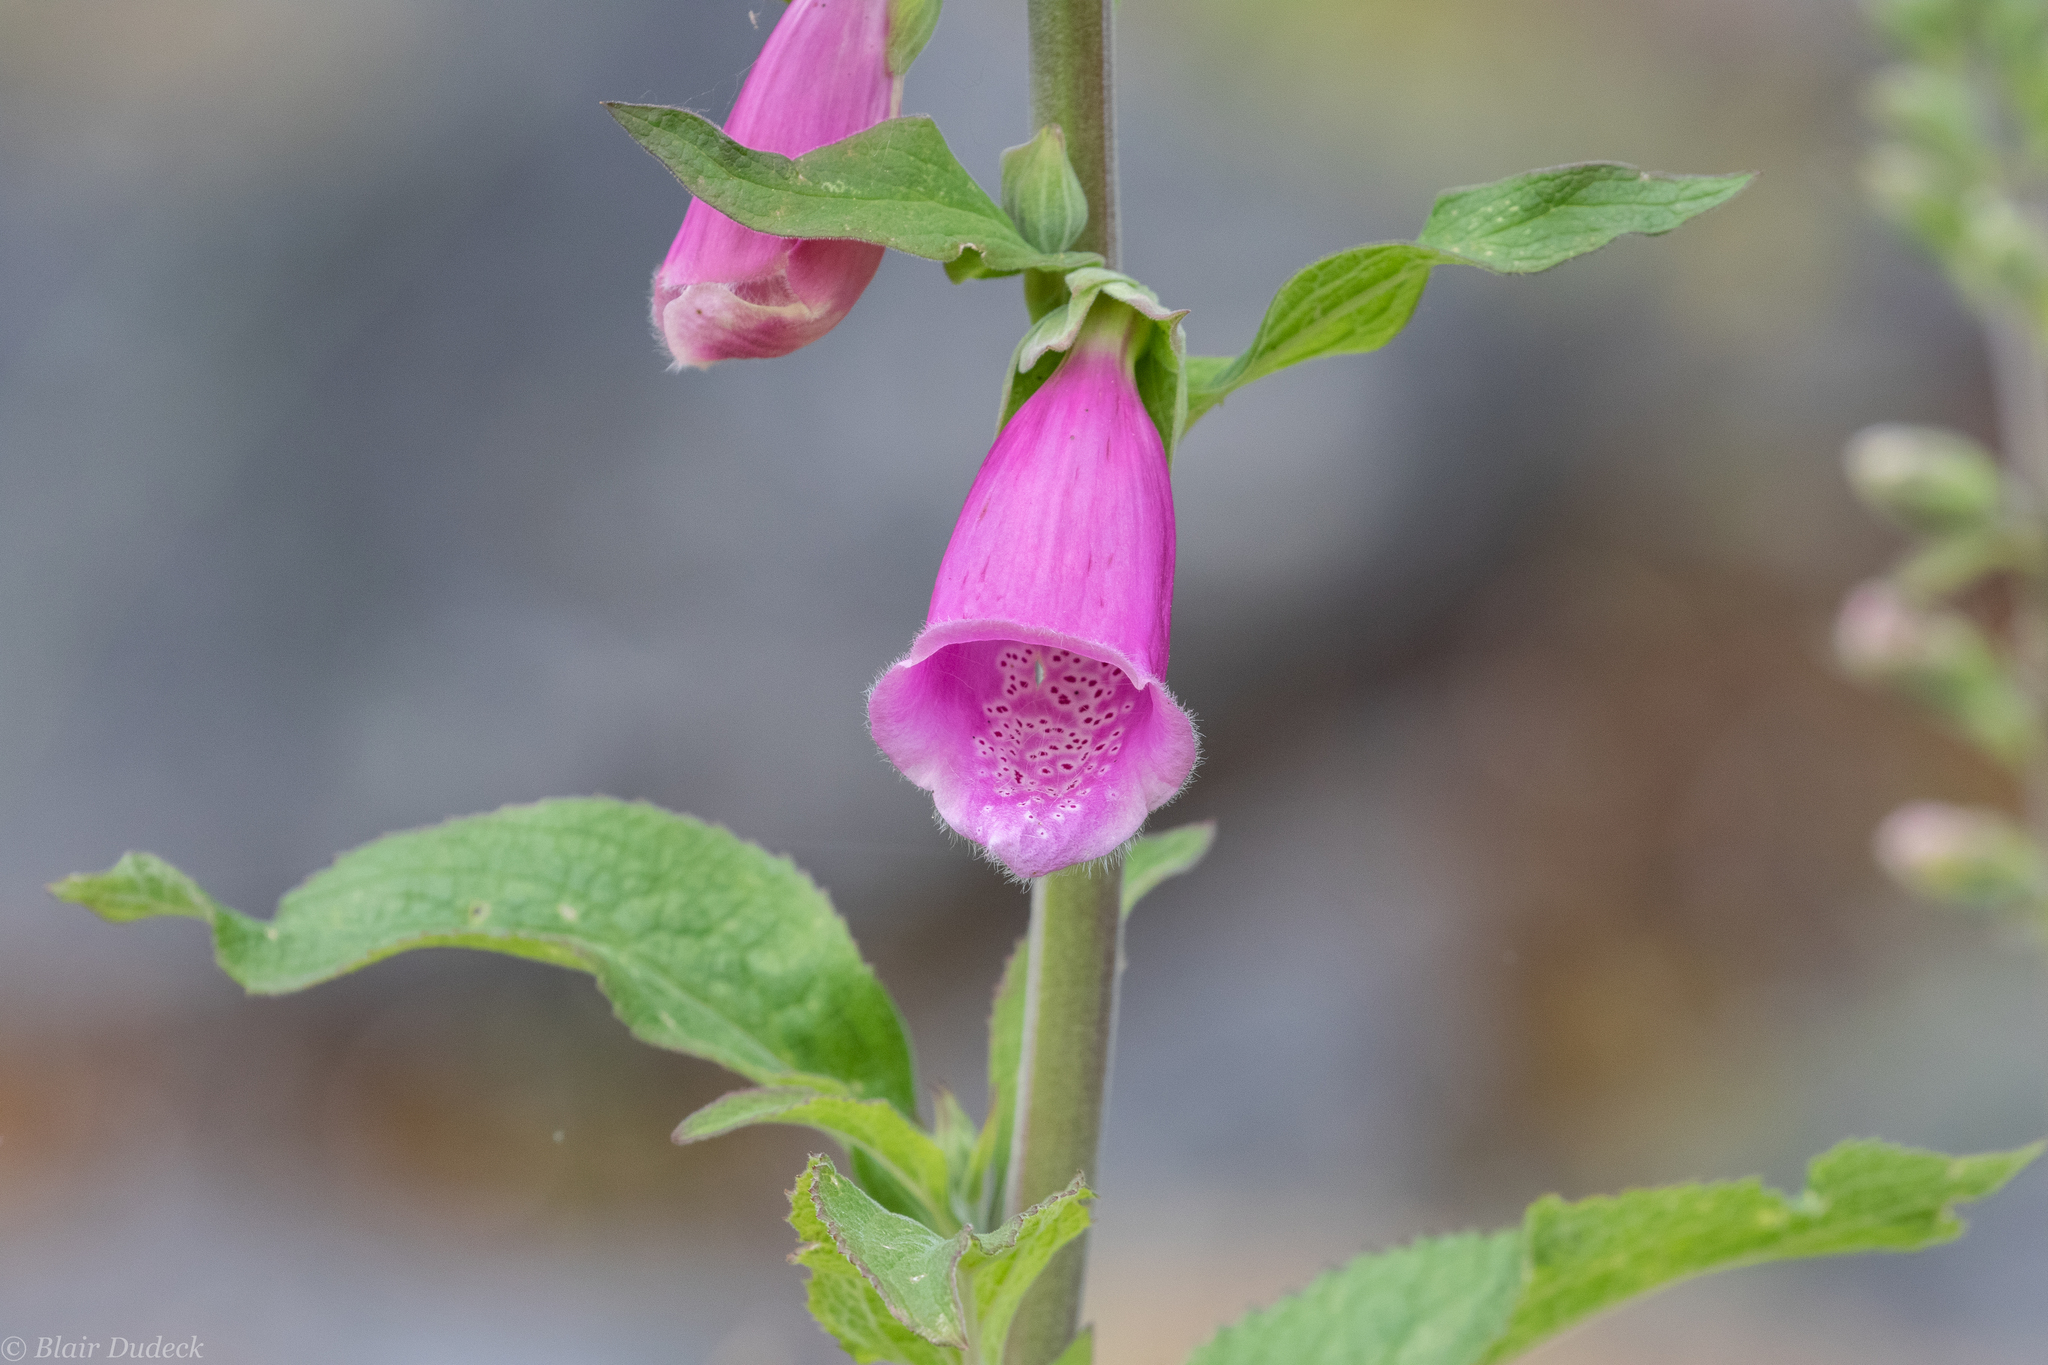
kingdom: Plantae
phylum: Tracheophyta
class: Magnoliopsida
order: Lamiales
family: Plantaginaceae
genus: Digitalis
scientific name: Digitalis purpurea
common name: Foxglove
